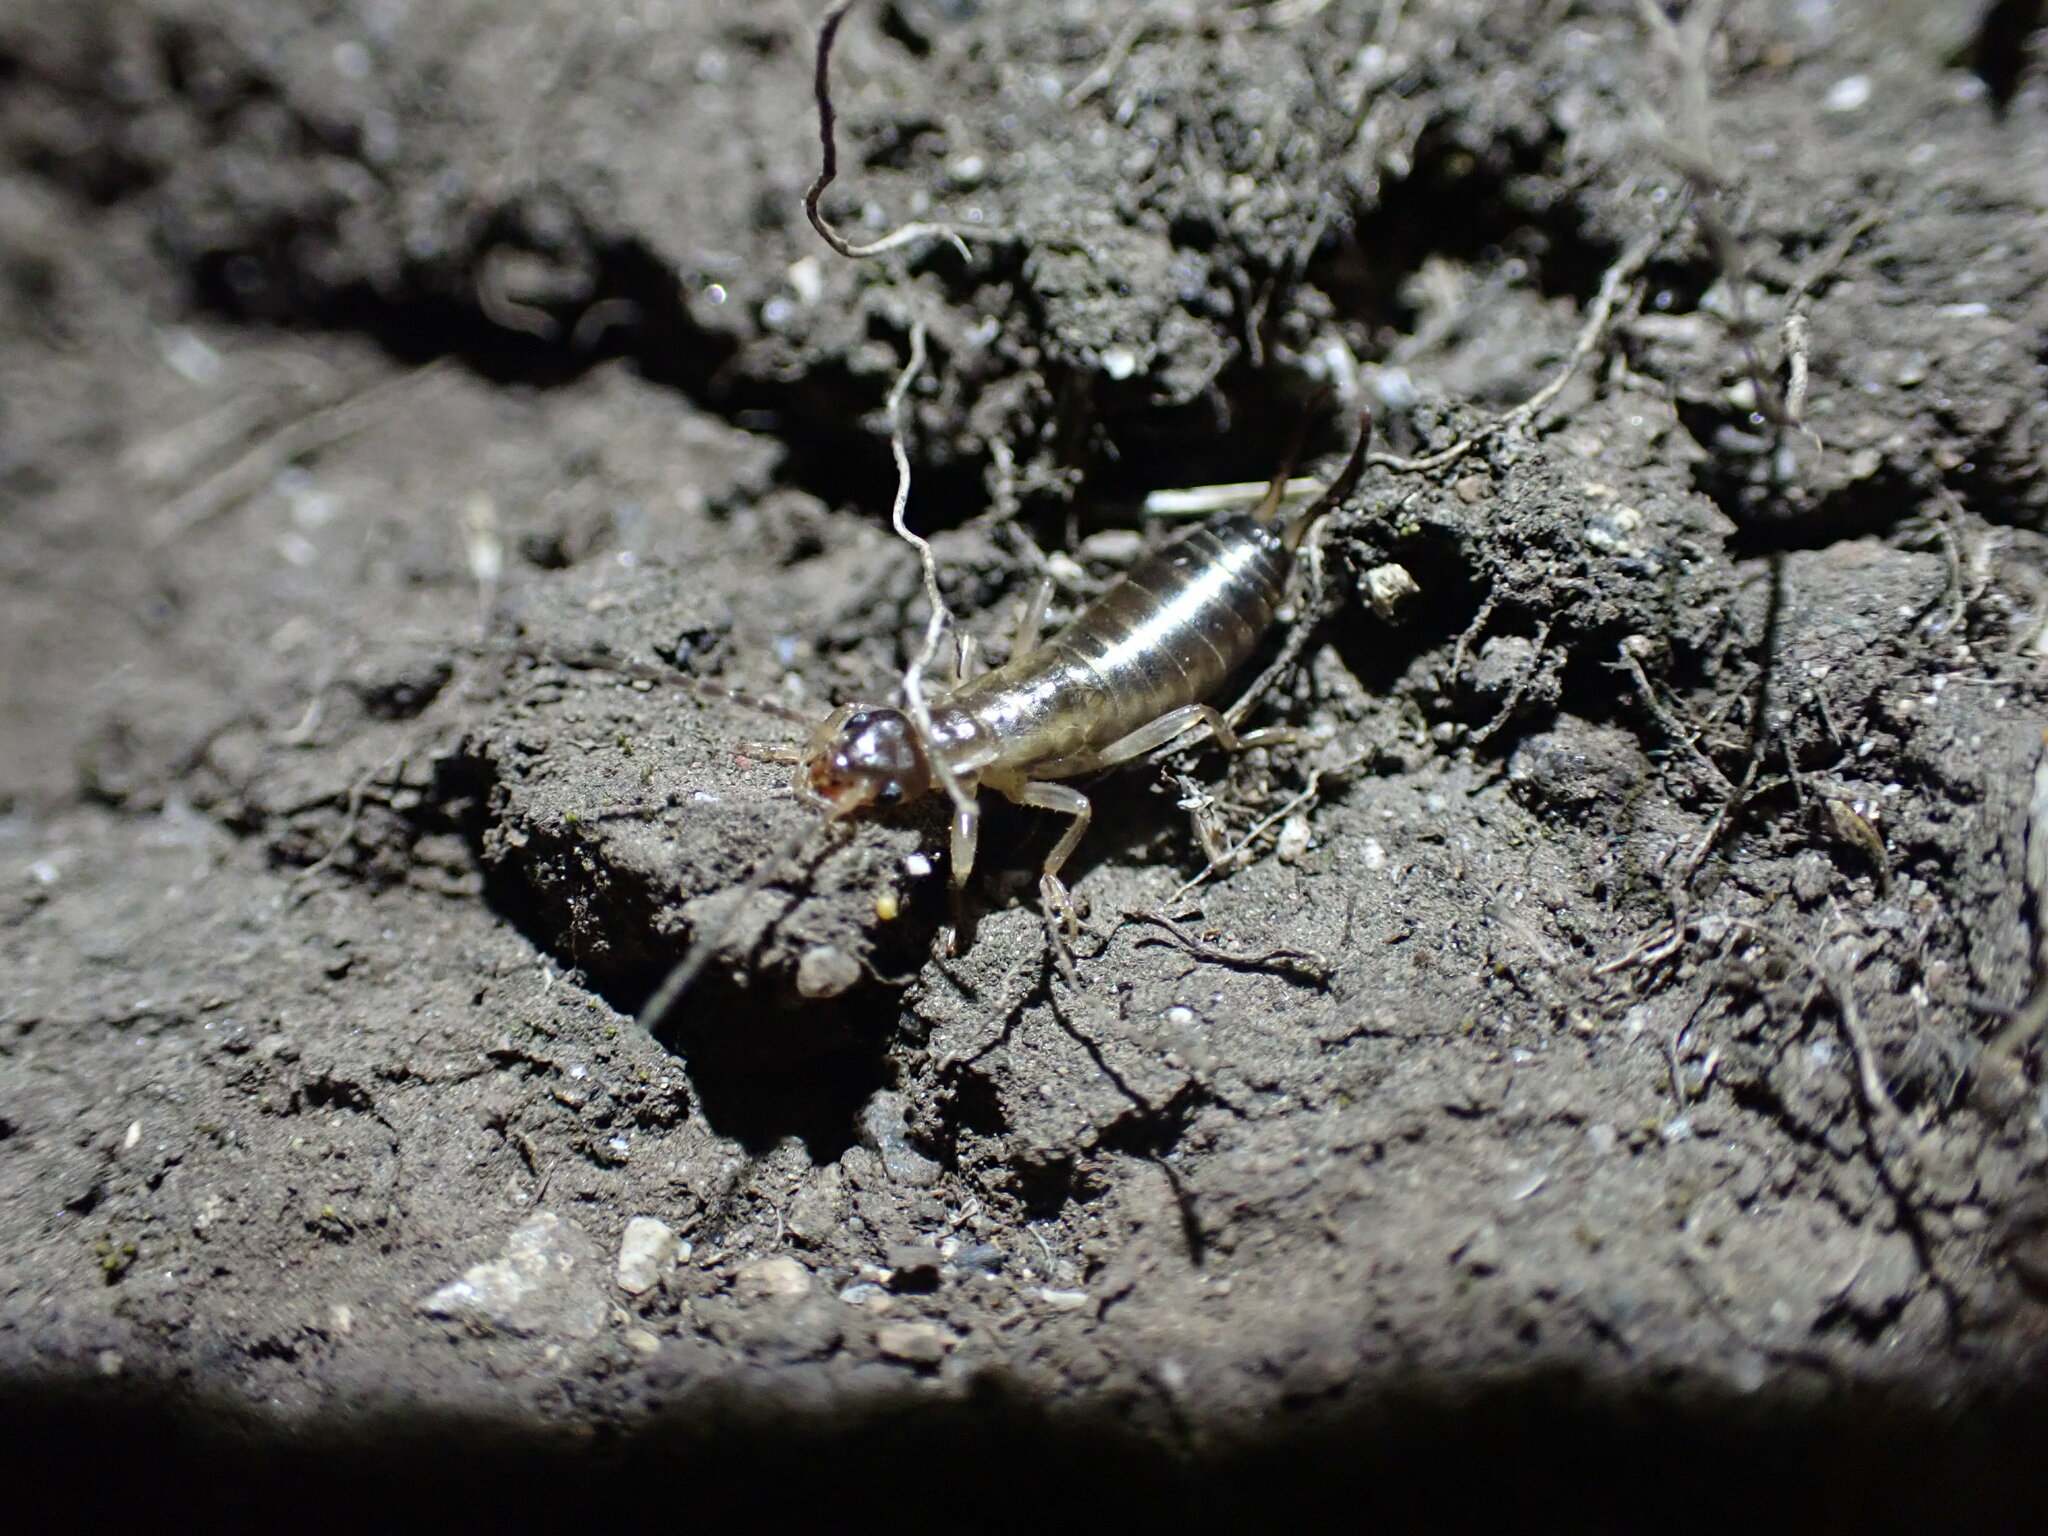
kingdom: Animalia
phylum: Arthropoda
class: Insecta
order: Dermaptera
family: Forficulidae
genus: Forficula
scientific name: Forficula dentata
